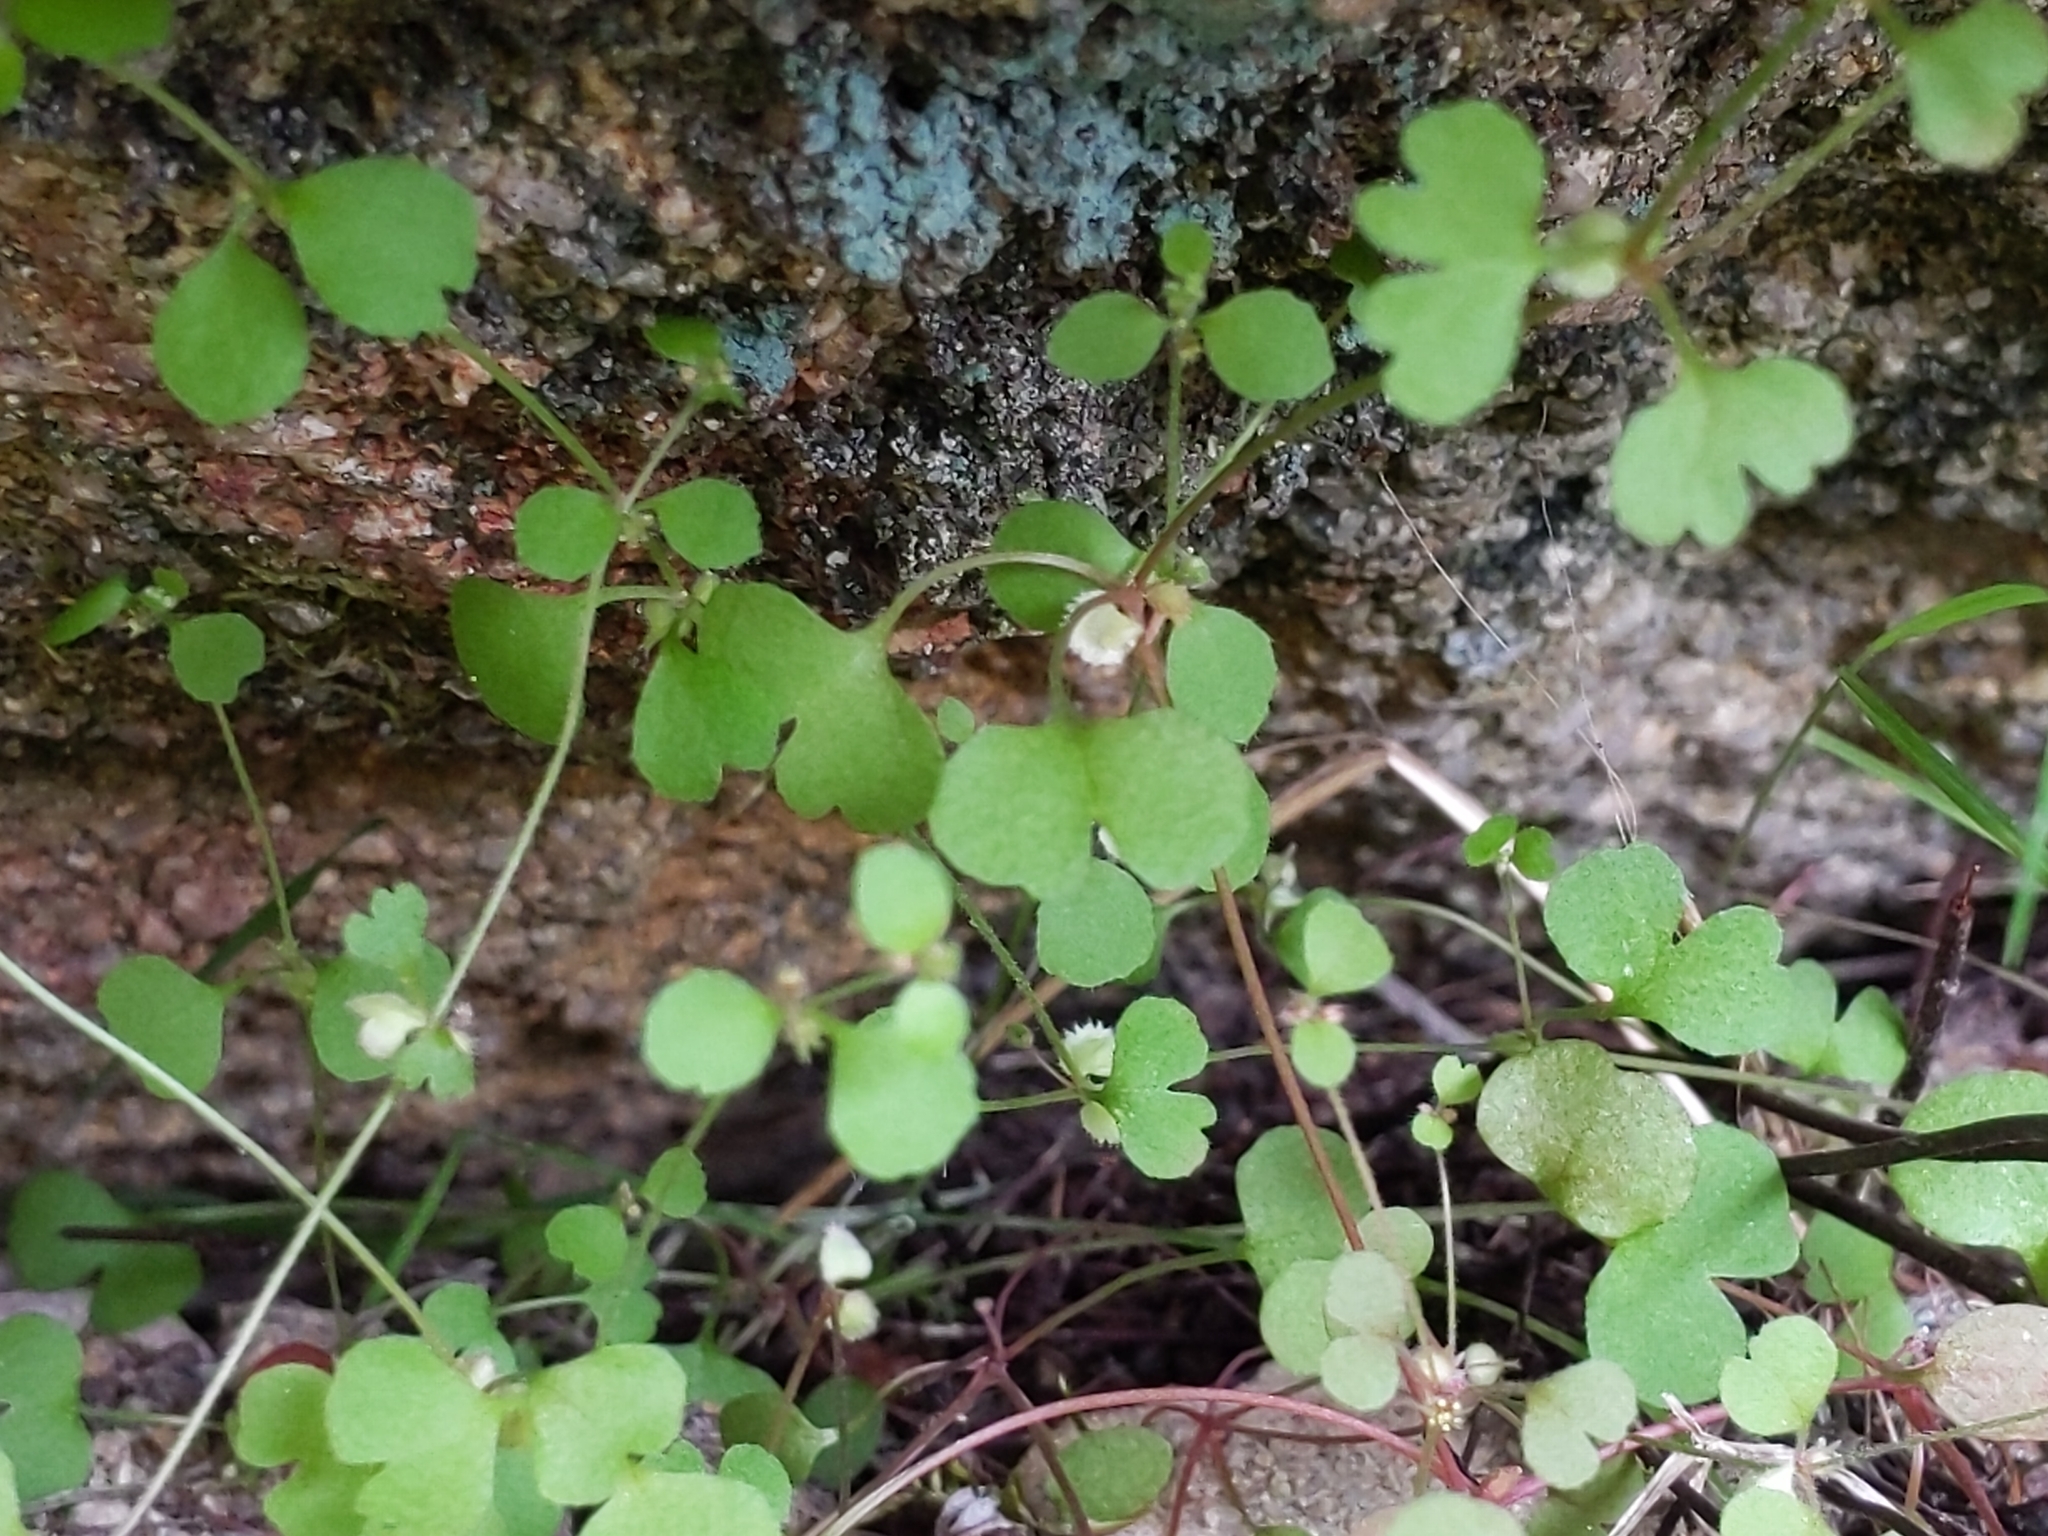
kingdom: Plantae
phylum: Tracheophyta
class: Magnoliopsida
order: Caryophyllales
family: Polygonaceae
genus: Pterostegia
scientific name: Pterostegia drymarioides
